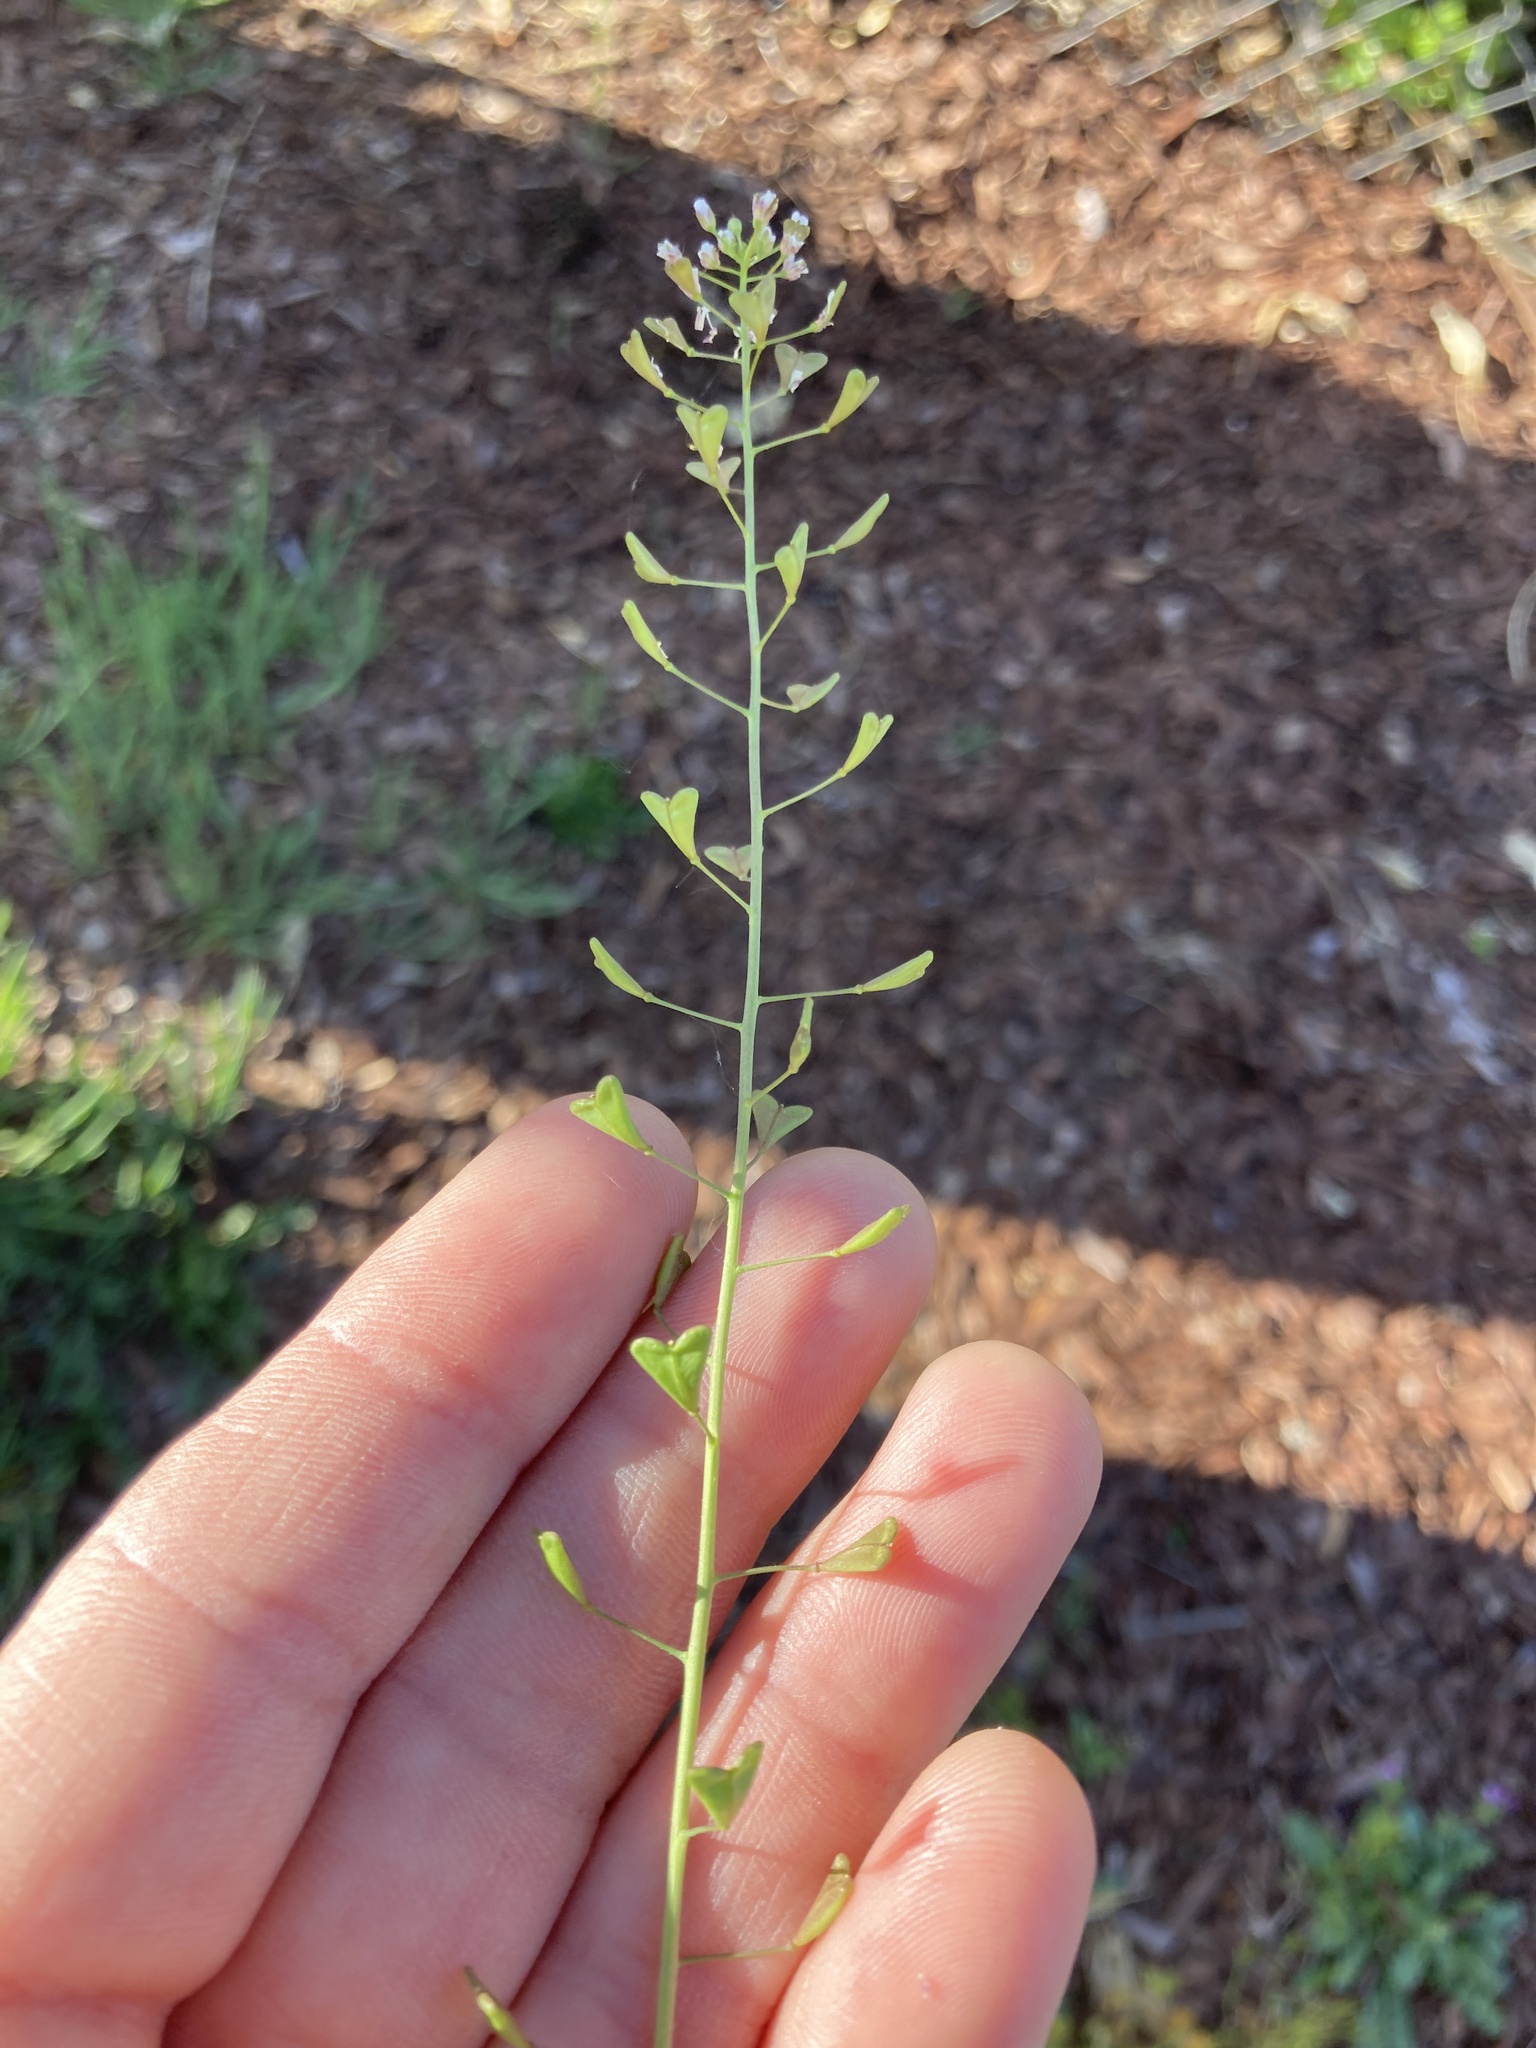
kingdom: Plantae
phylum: Tracheophyta
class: Magnoliopsida
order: Brassicales
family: Brassicaceae
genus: Capsella
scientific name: Capsella bursa-pastoris
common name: Shepherd's purse
